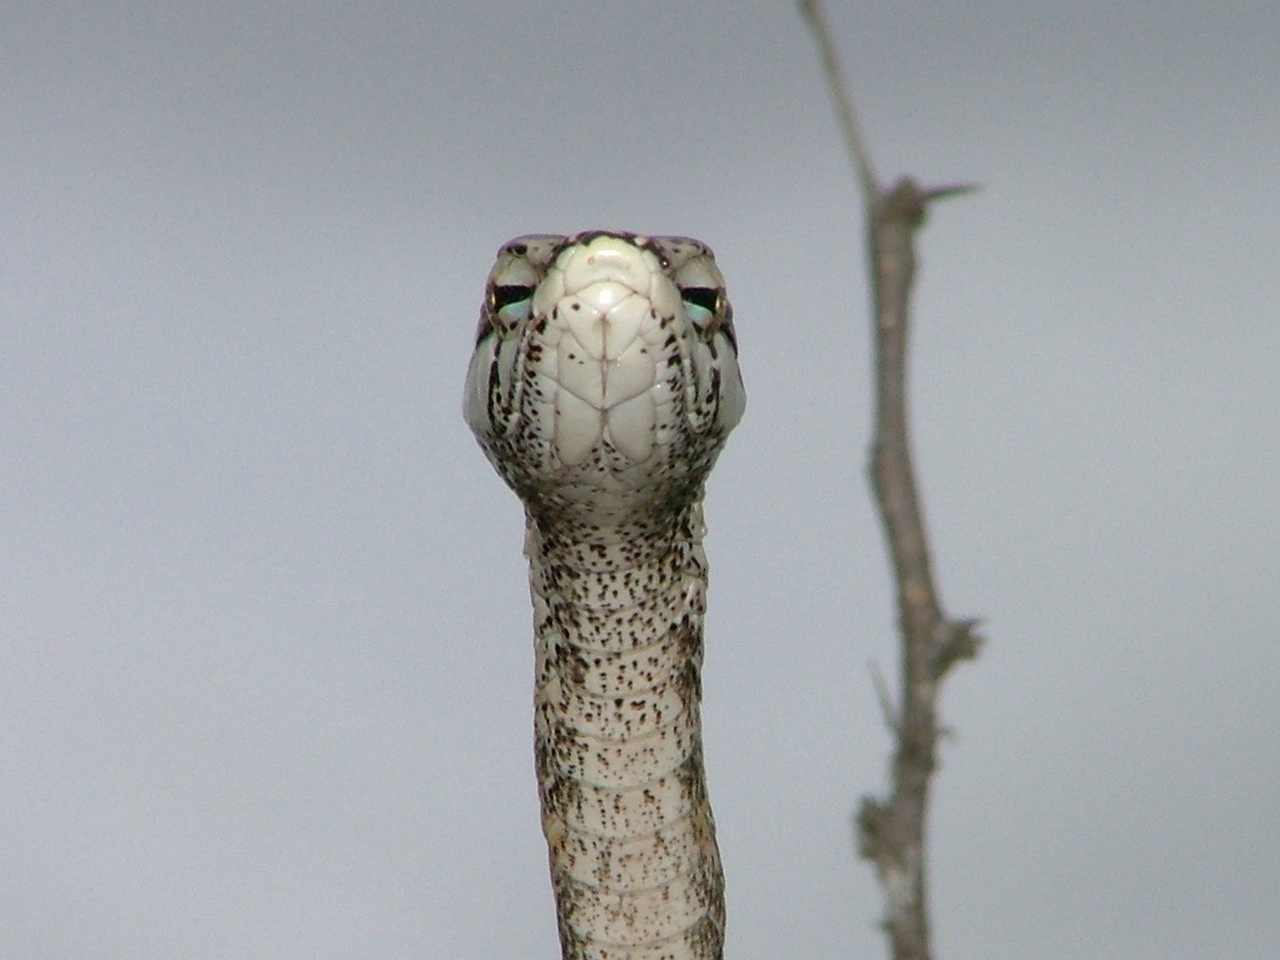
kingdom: Animalia
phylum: Chordata
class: Squamata
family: Colubridae
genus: Thelotornis
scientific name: Thelotornis capensis
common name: Savanna vine snake
